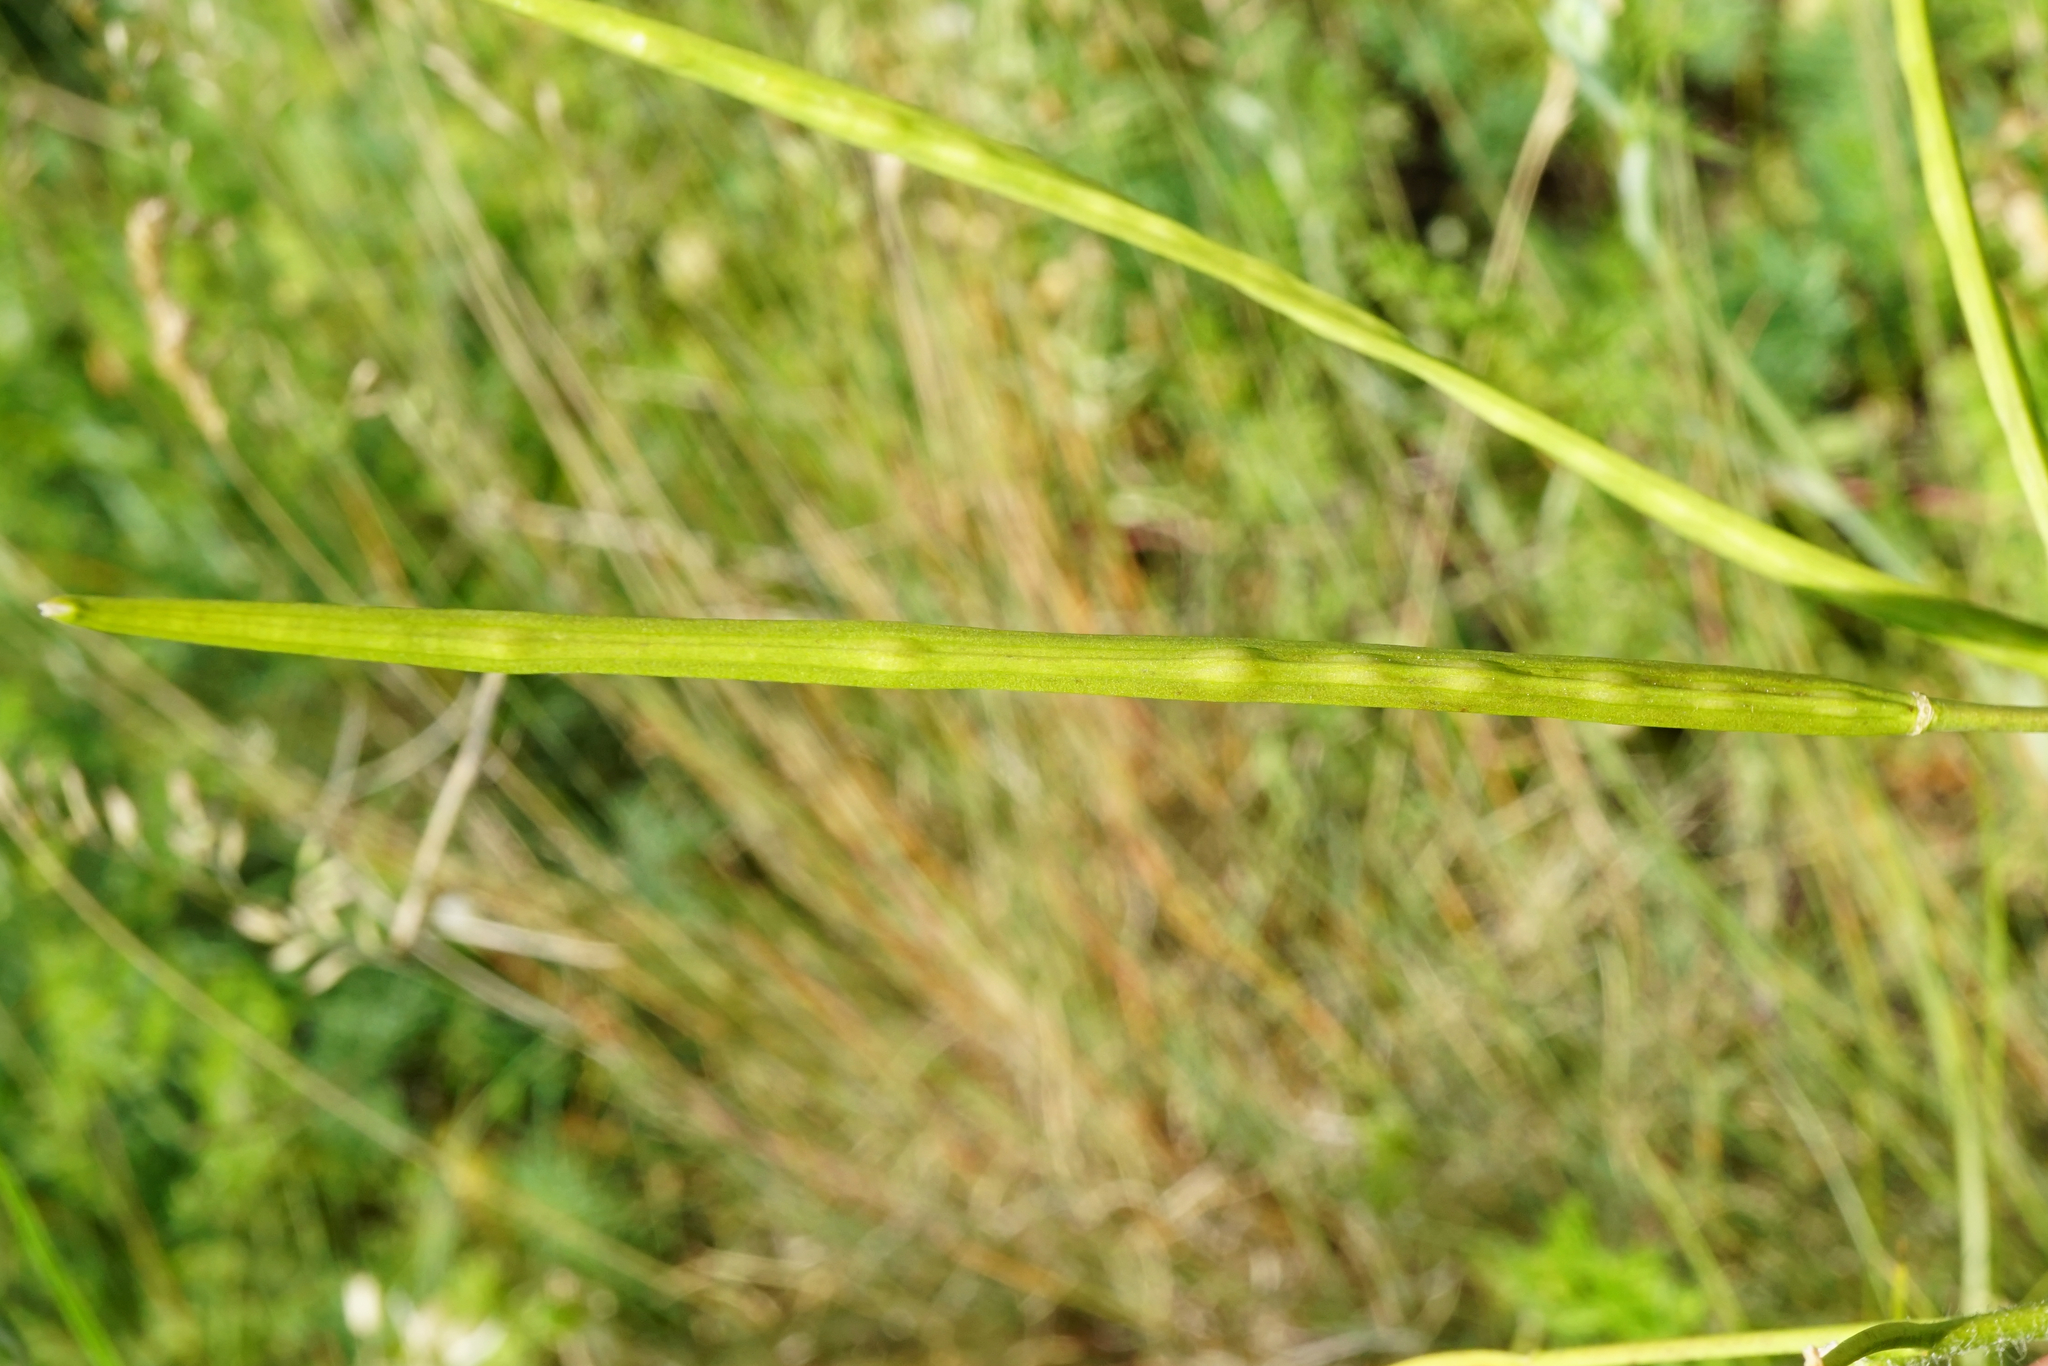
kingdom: Plantae
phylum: Tracheophyta
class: Magnoliopsida
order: Brassicales
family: Brassicaceae
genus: Hesperis
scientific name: Hesperis tristis
